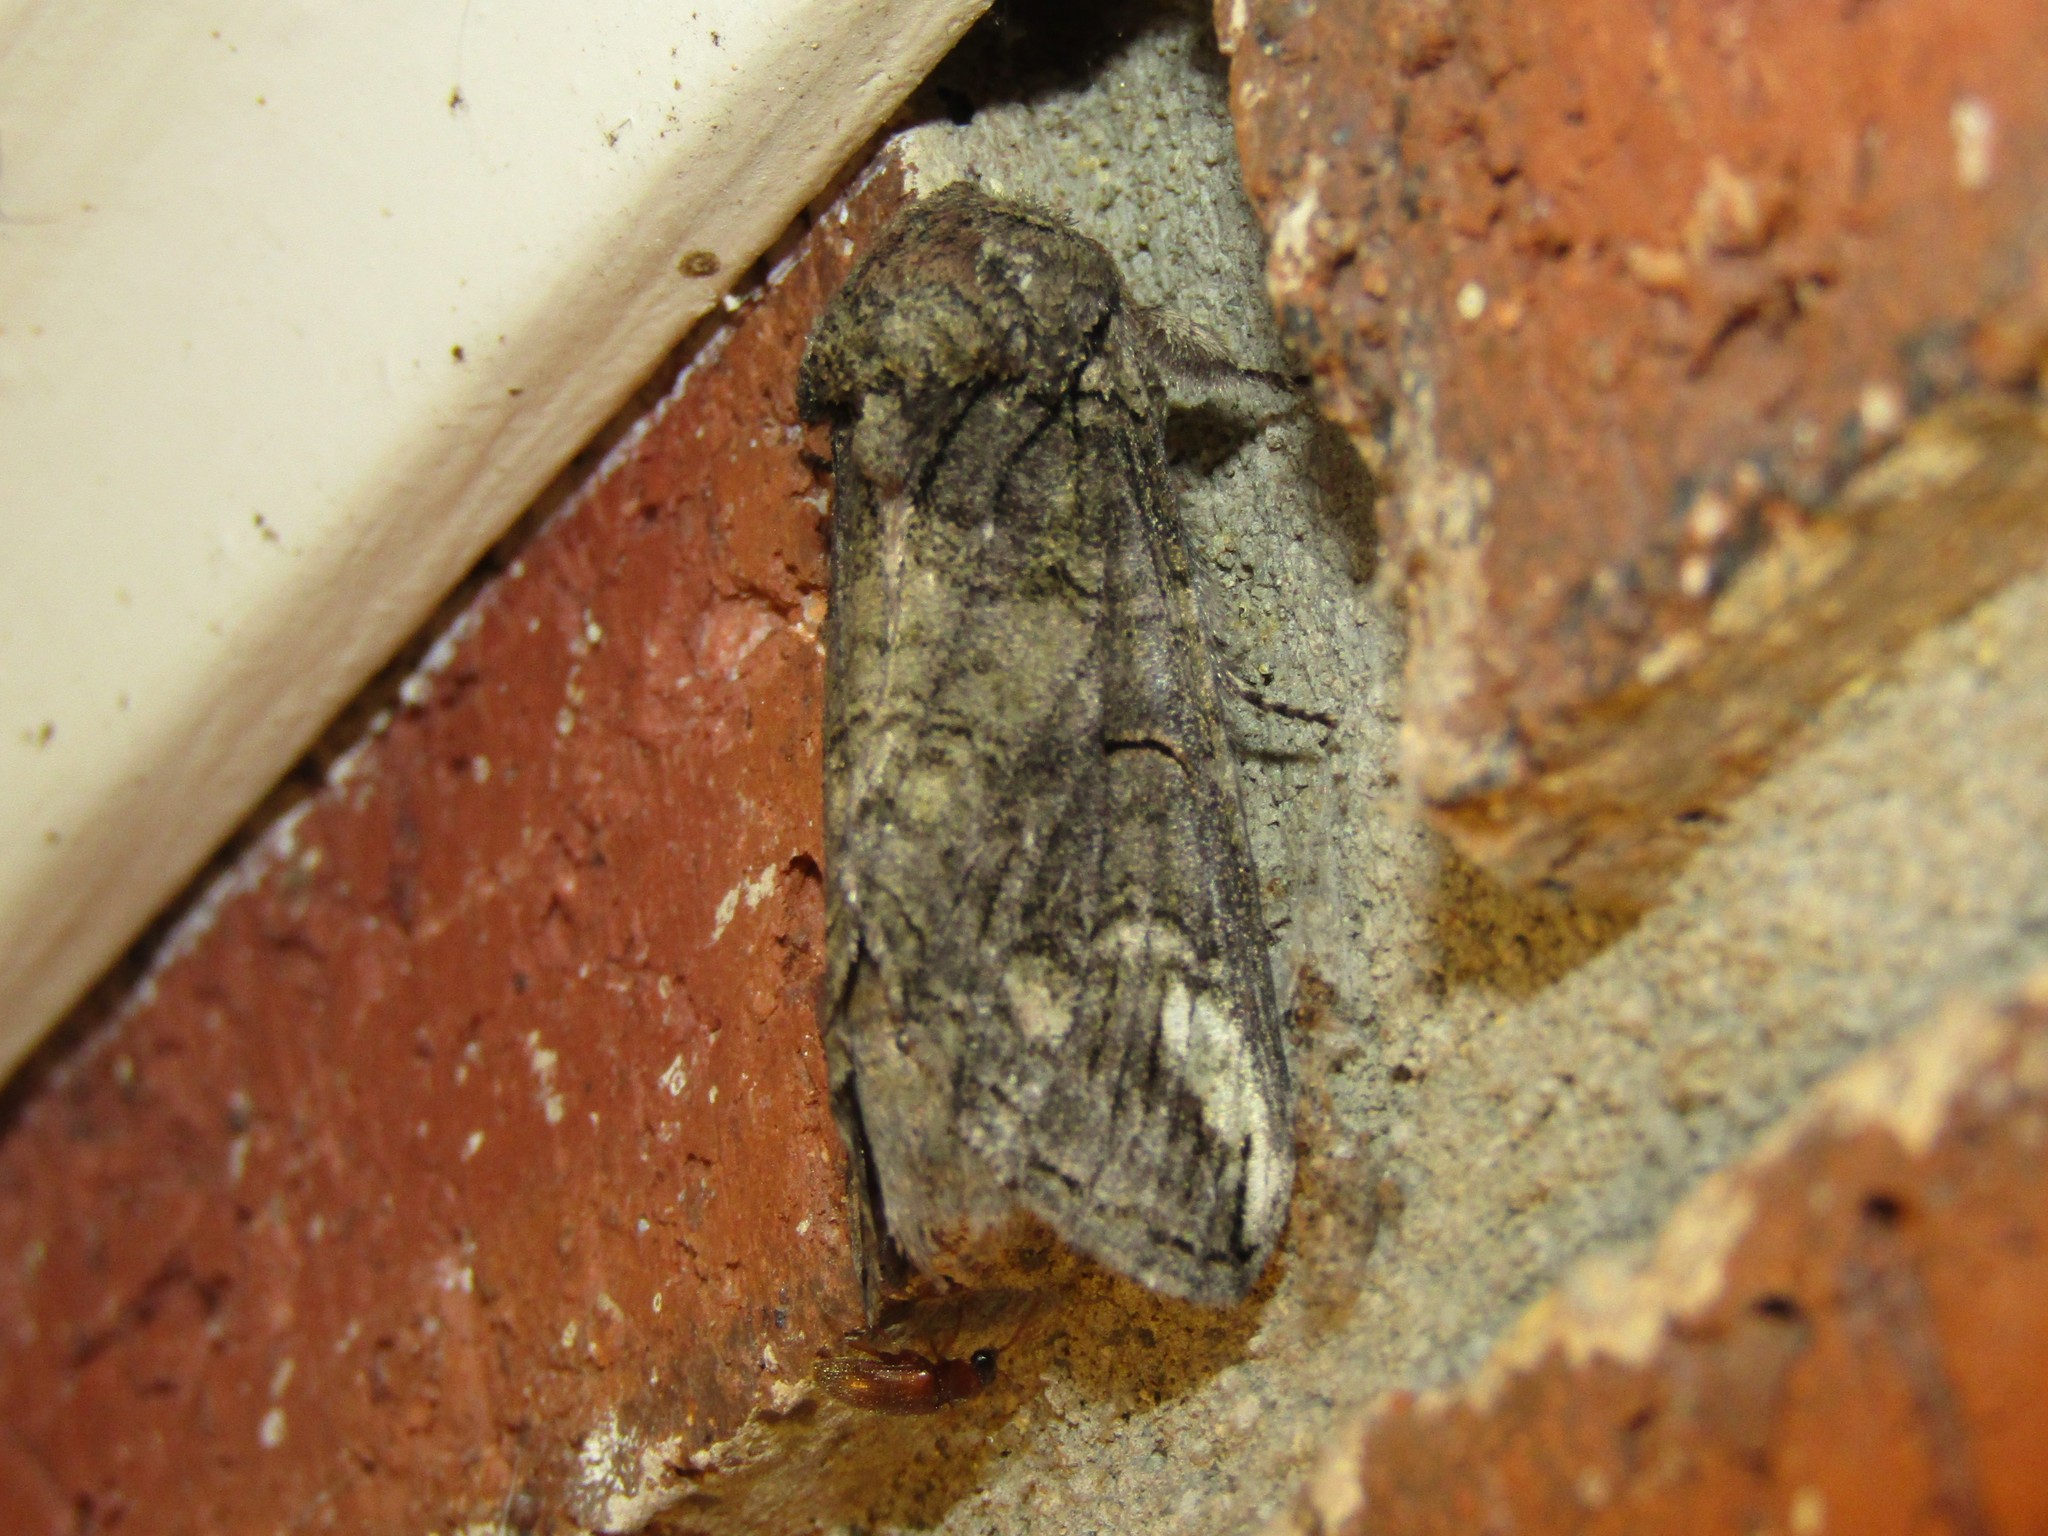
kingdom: Animalia
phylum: Arthropoda
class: Insecta
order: Lepidoptera
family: Notodontidae
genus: Heterocampa
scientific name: Heterocampa obliqua
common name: Oblique heterocampa
